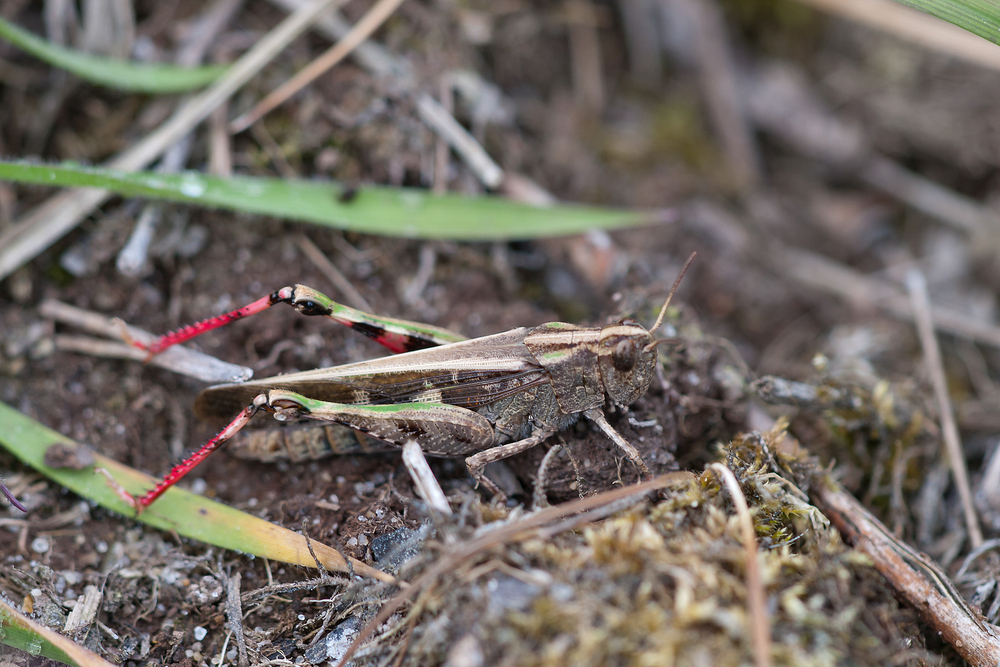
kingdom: Animalia
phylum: Arthropoda
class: Insecta
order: Orthoptera
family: Acrididae
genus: Aiolopus
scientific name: Aiolopus strepens
